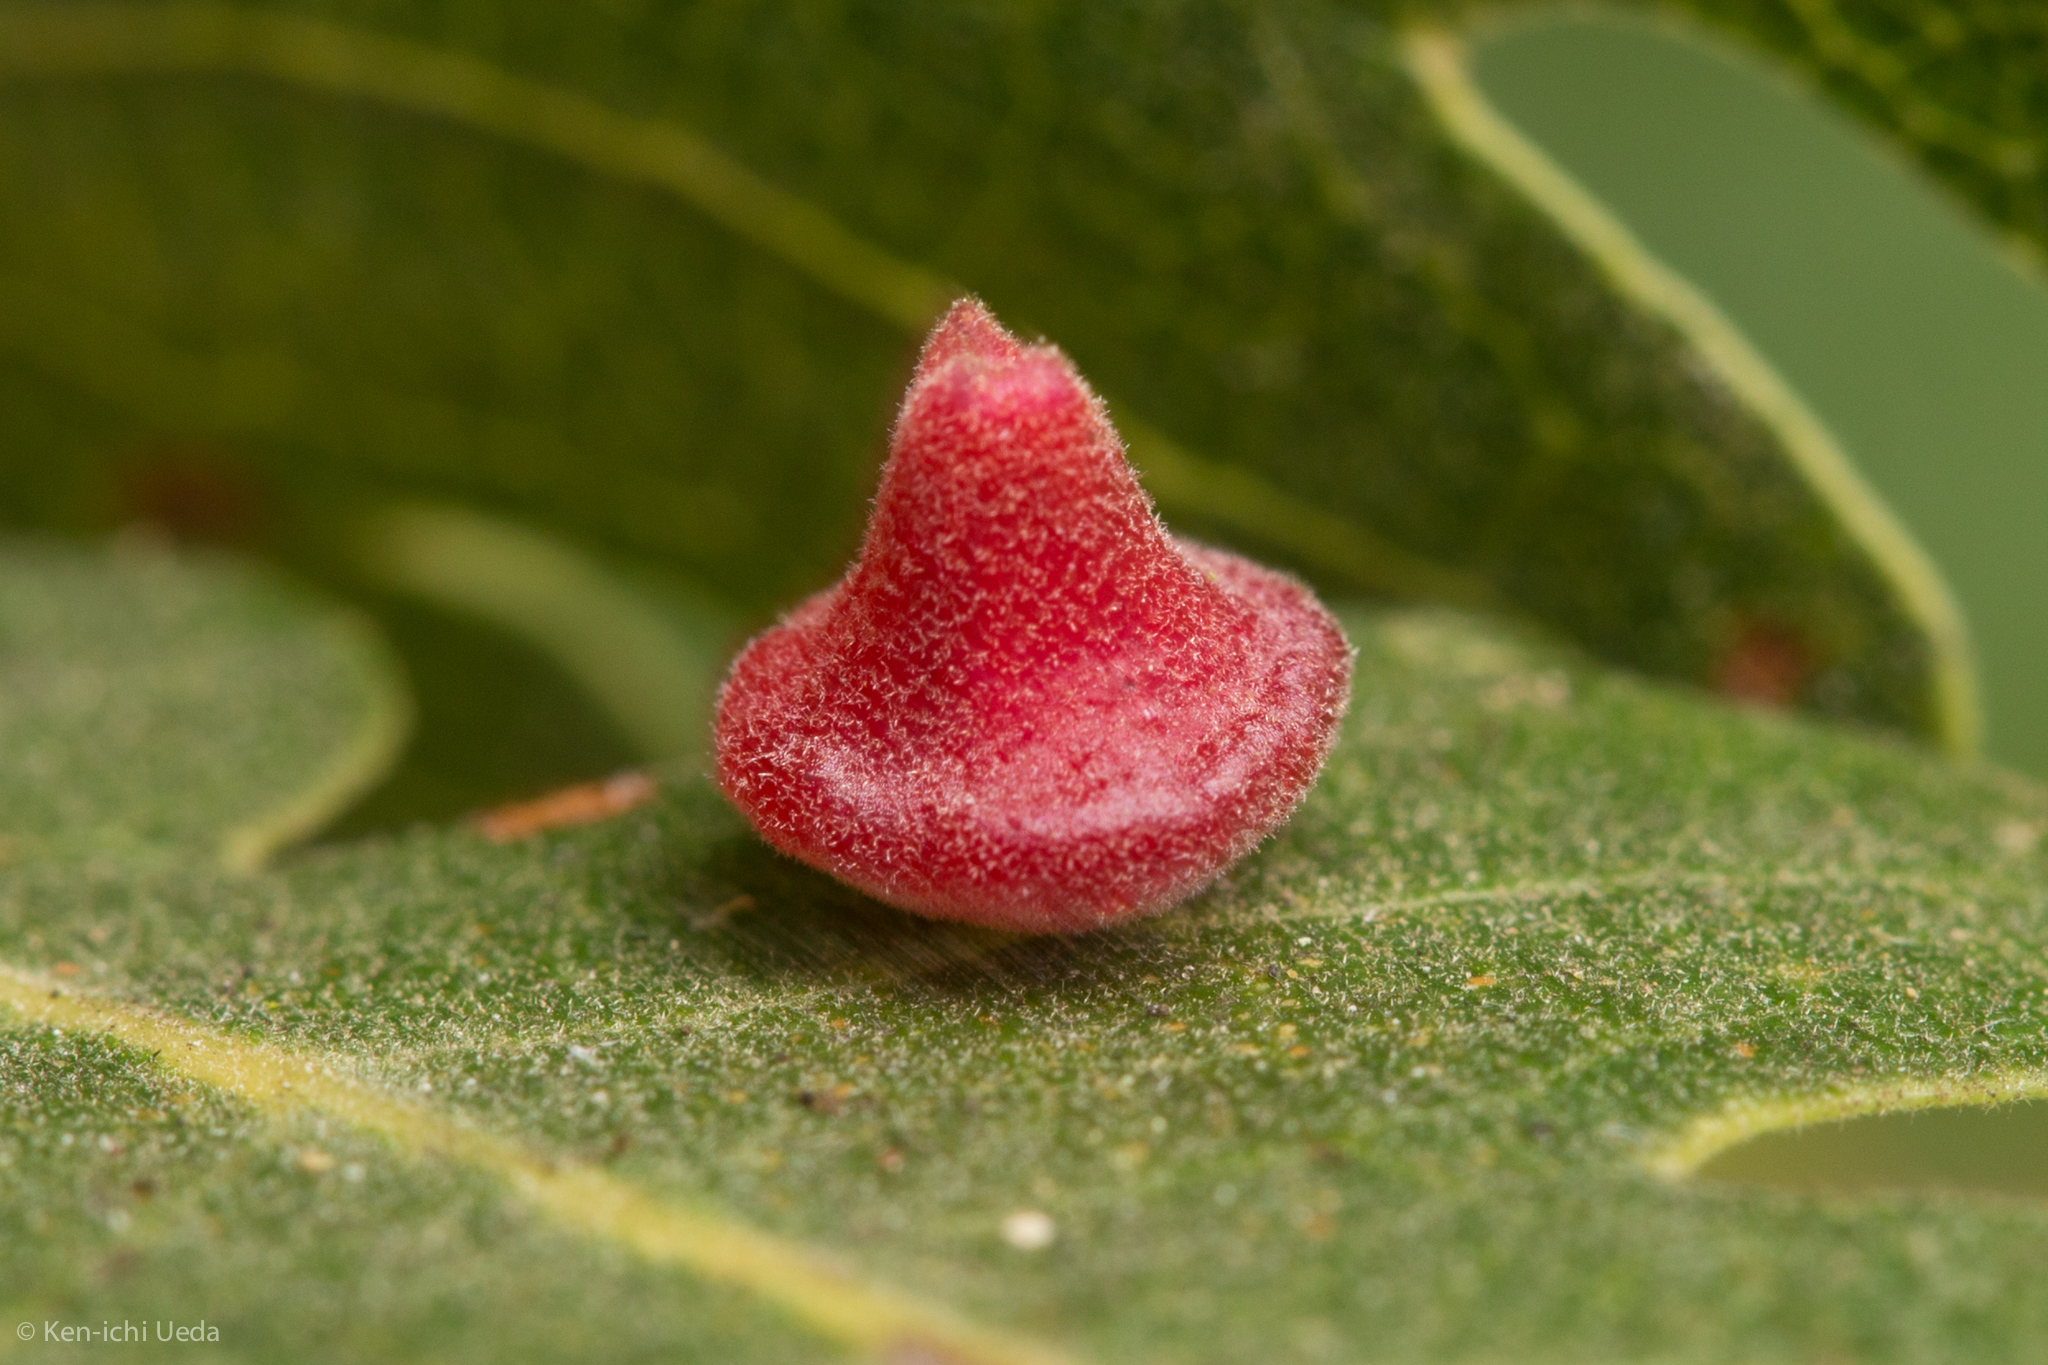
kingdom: Animalia
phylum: Arthropoda
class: Insecta
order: Hymenoptera
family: Cynipidae
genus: Andricus
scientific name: Andricus
